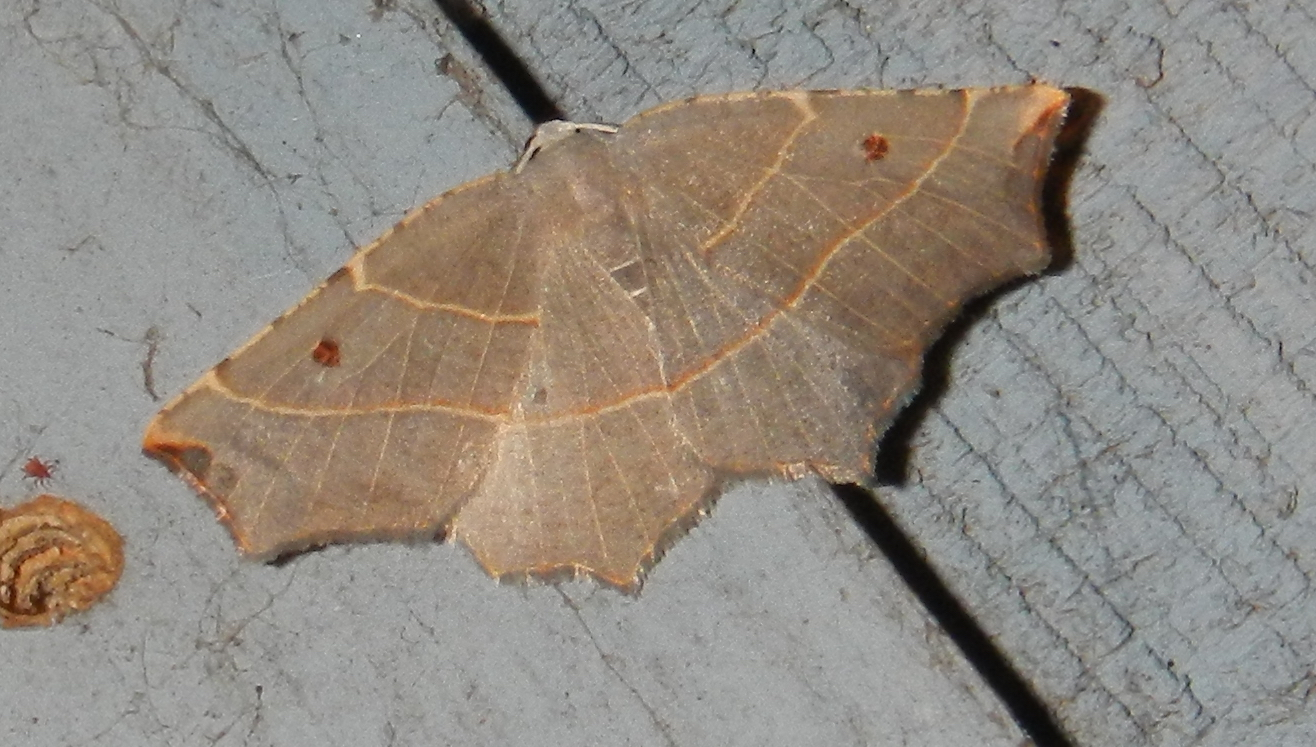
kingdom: Animalia
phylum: Arthropoda
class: Insecta
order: Lepidoptera
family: Geometridae
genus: Metanema
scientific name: Metanema inatomaria
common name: Pale metanema
